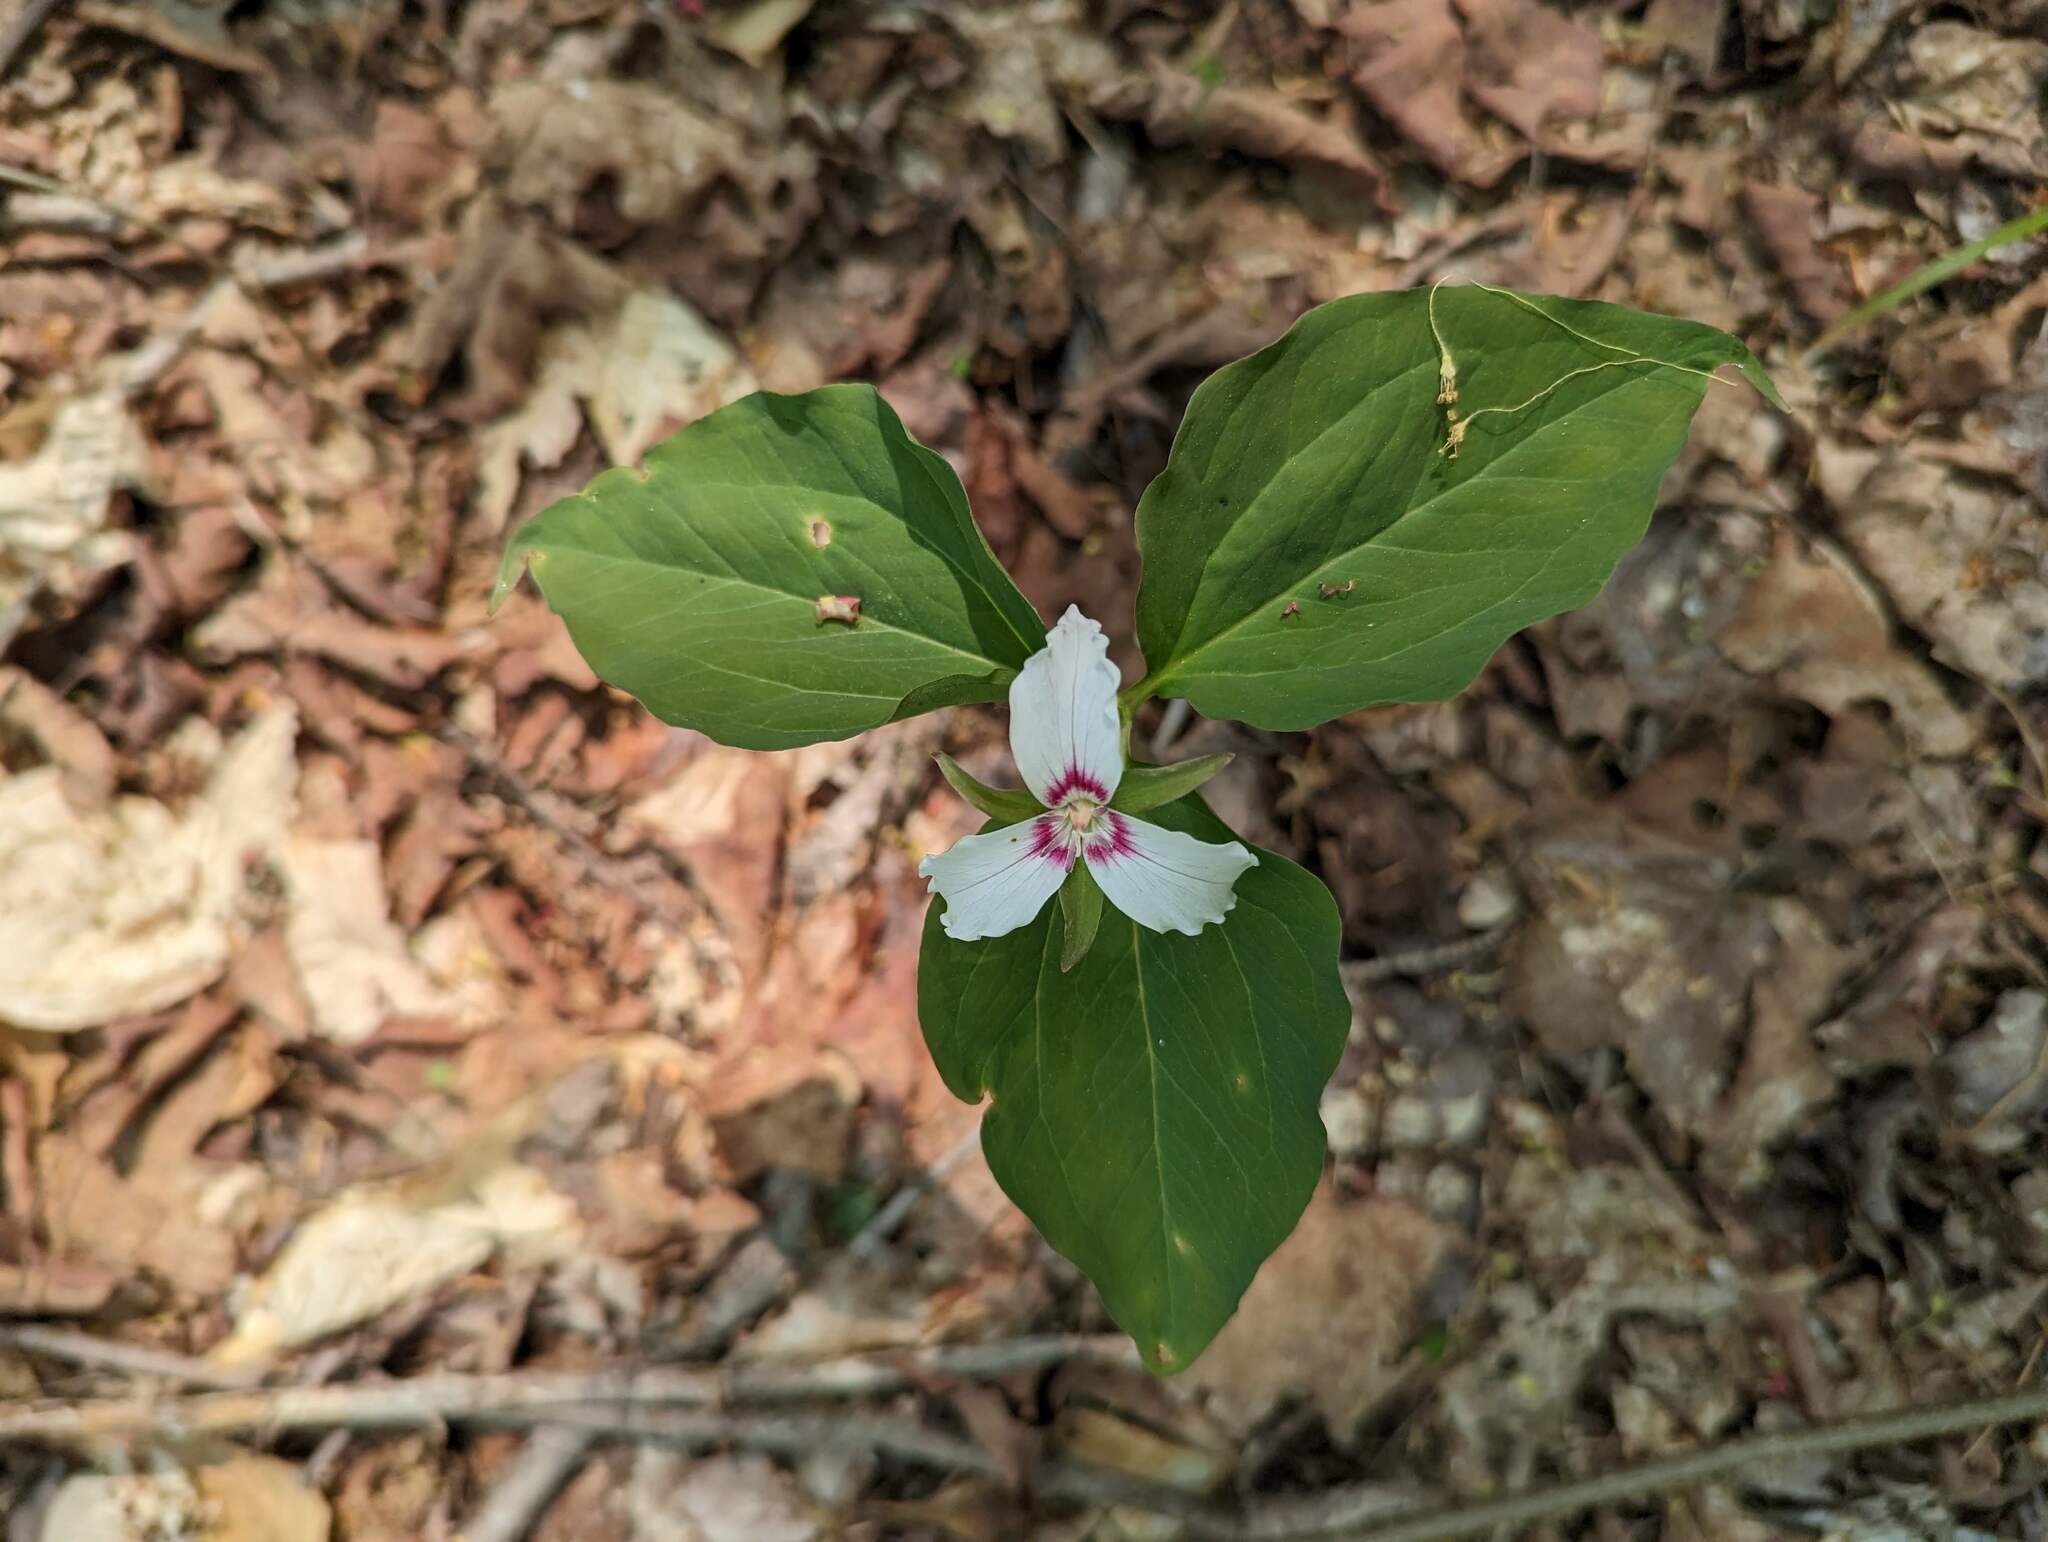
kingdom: Plantae
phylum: Tracheophyta
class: Liliopsida
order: Liliales
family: Melanthiaceae
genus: Trillium
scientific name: Trillium undulatum
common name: Paint trillium
